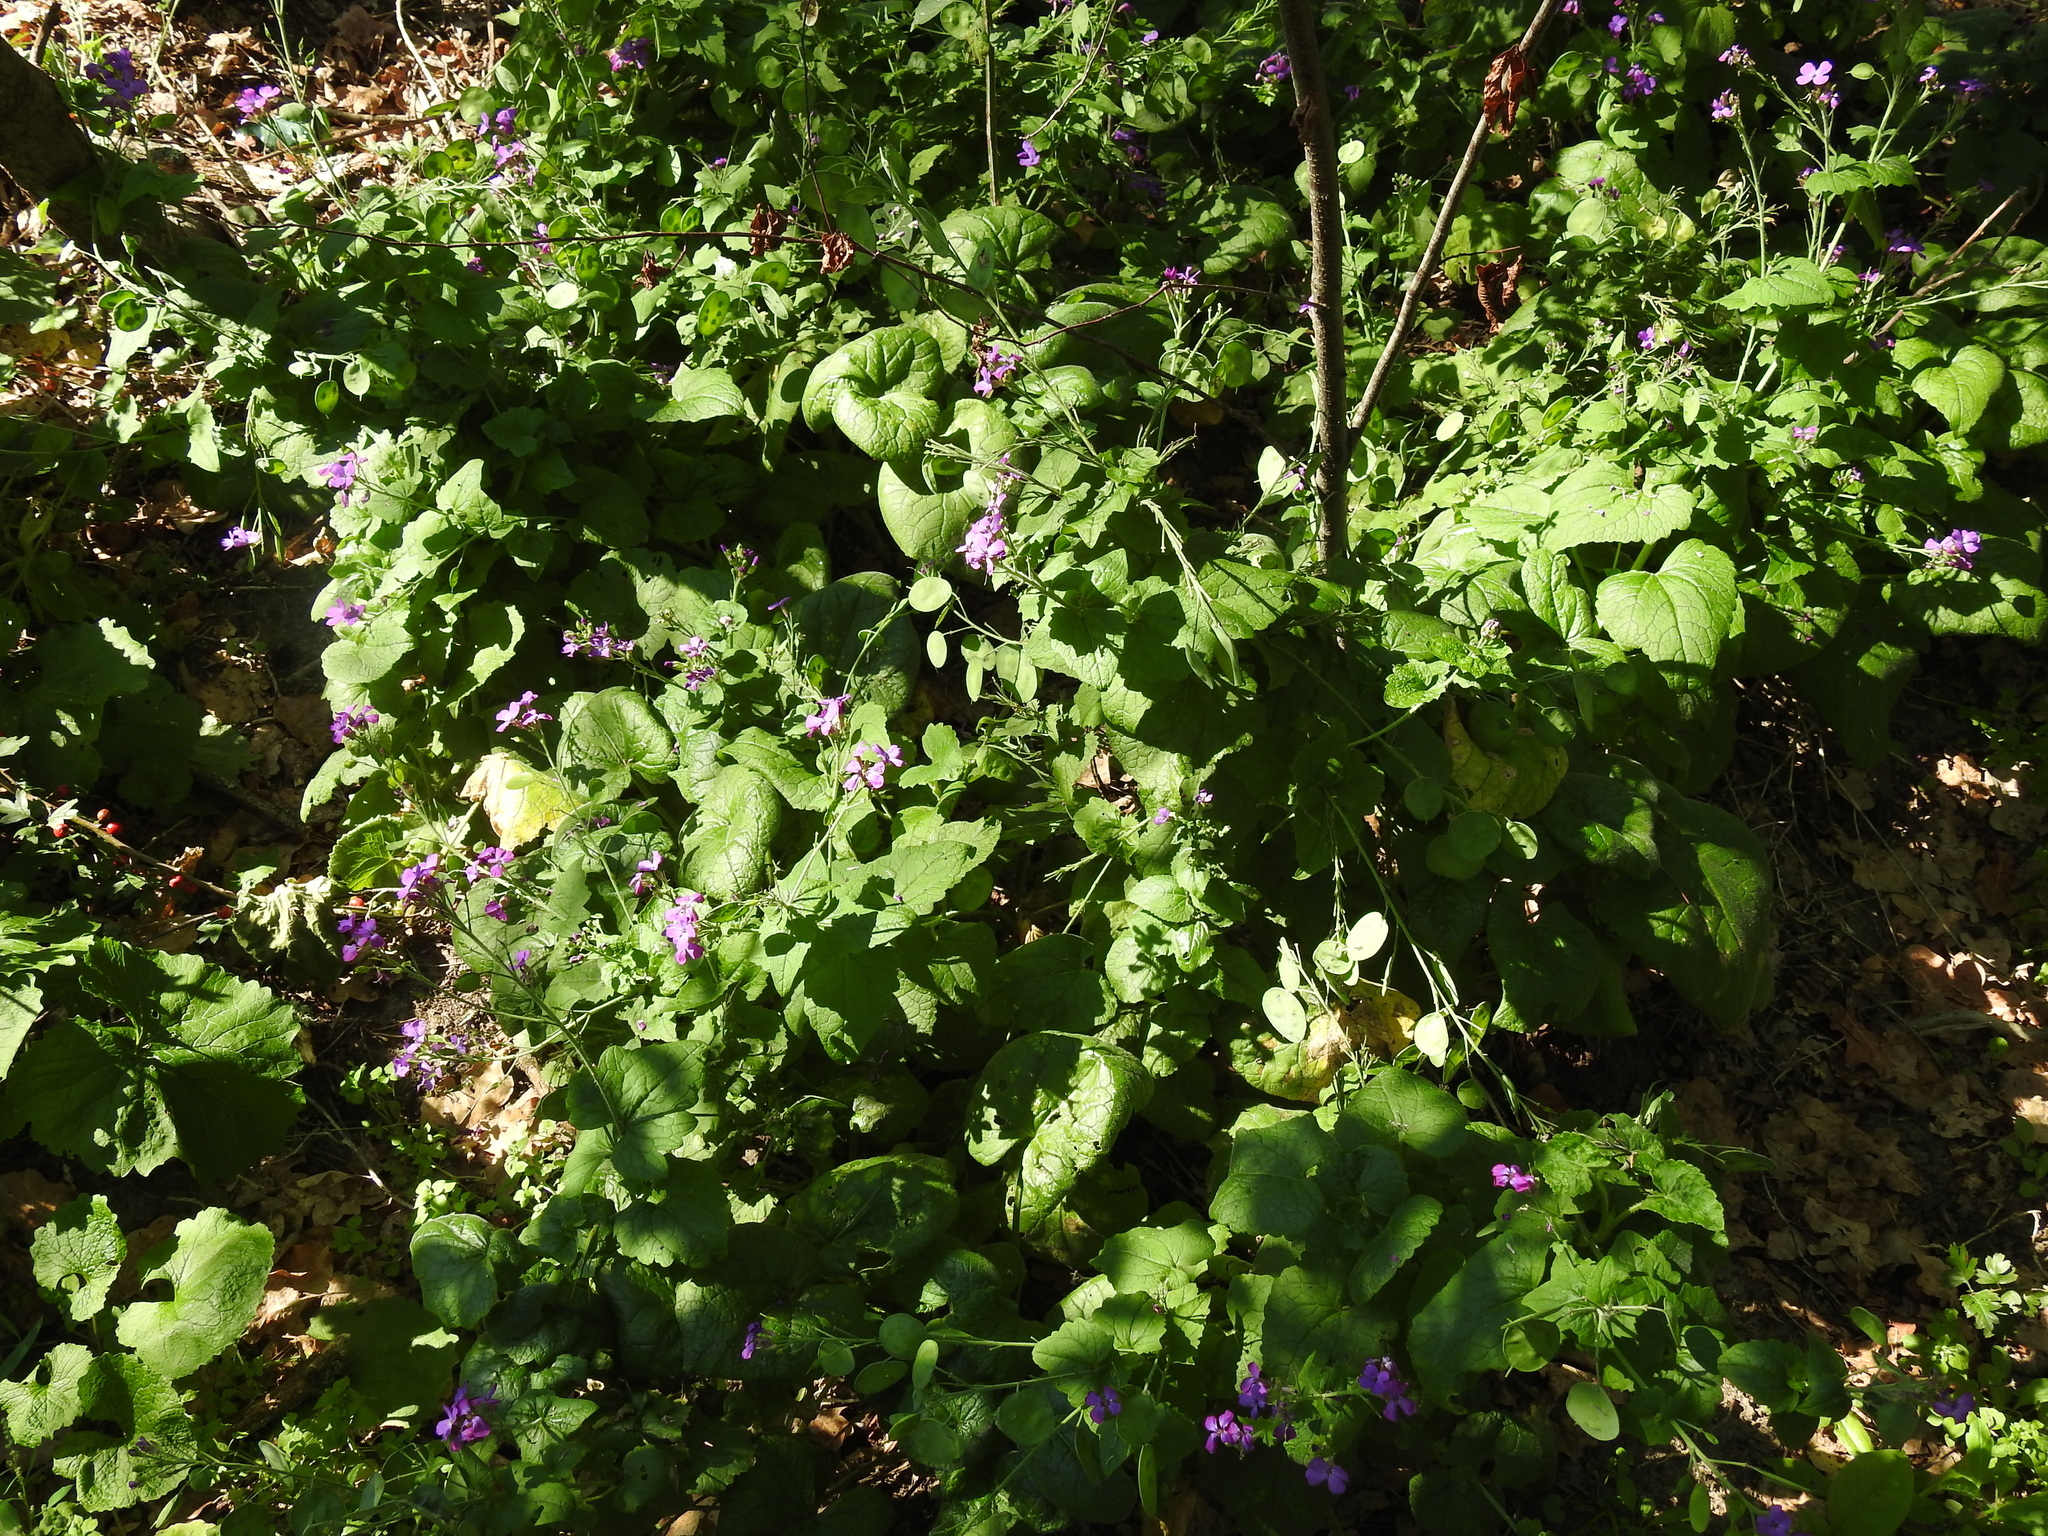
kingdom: Plantae
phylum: Tracheophyta
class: Magnoliopsida
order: Brassicales
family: Brassicaceae
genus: Lunaria
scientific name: Lunaria annua
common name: Honesty
